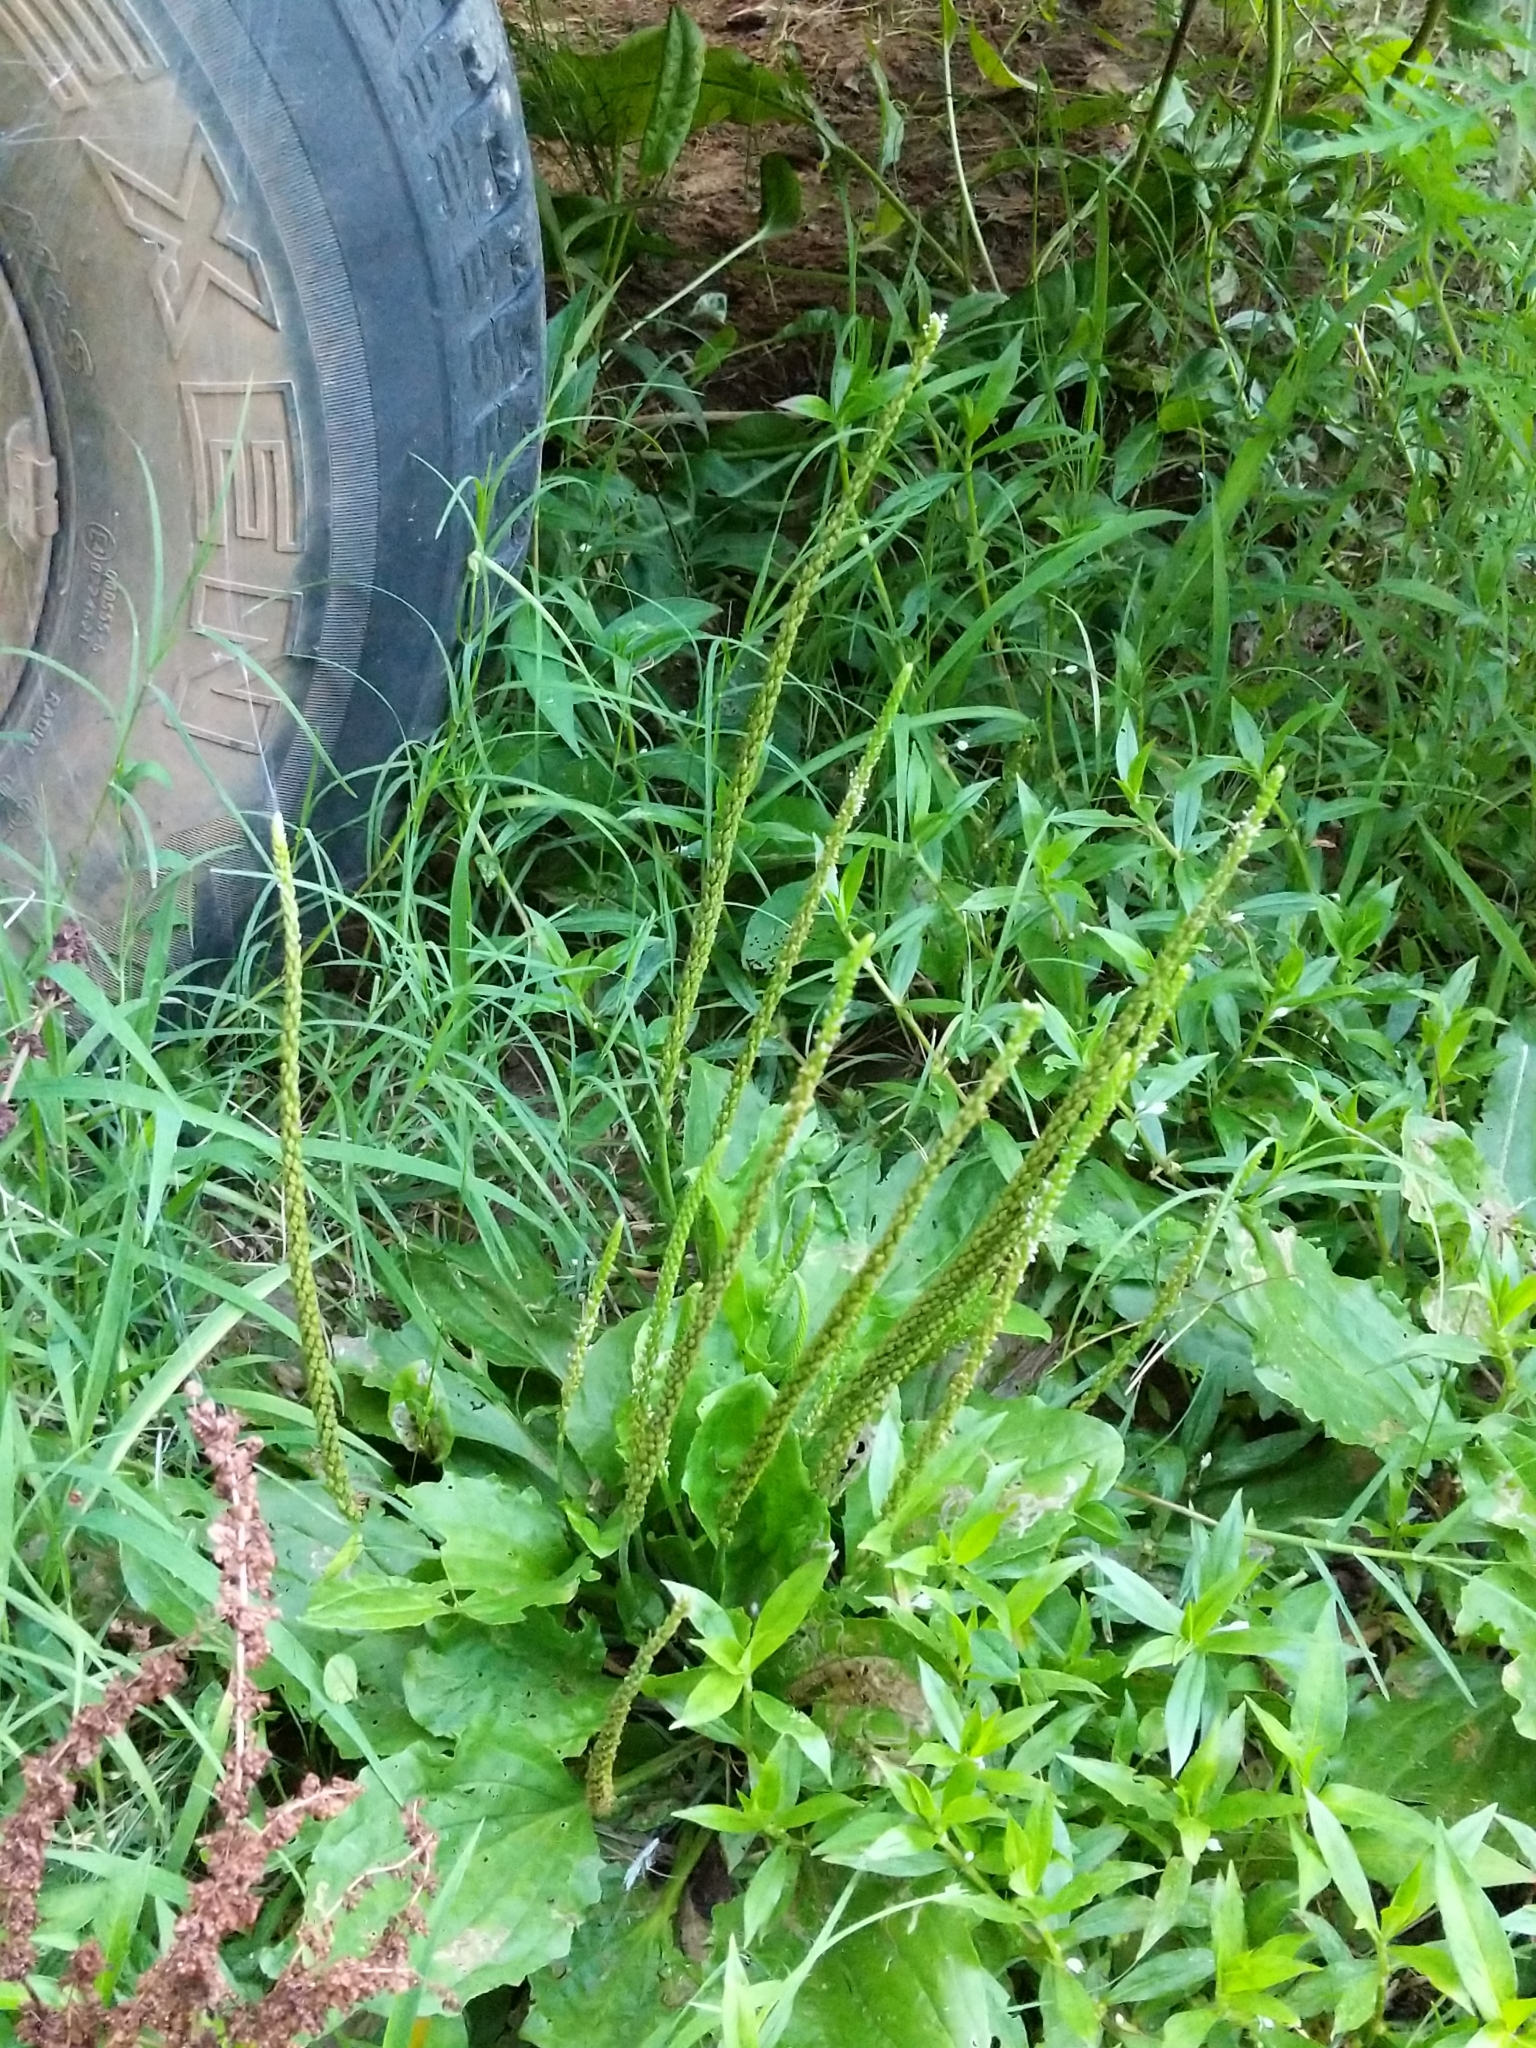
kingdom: Plantae
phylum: Tracheophyta
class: Magnoliopsida
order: Lamiales
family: Plantaginaceae
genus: Plantago
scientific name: Plantago major
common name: Common plantain
